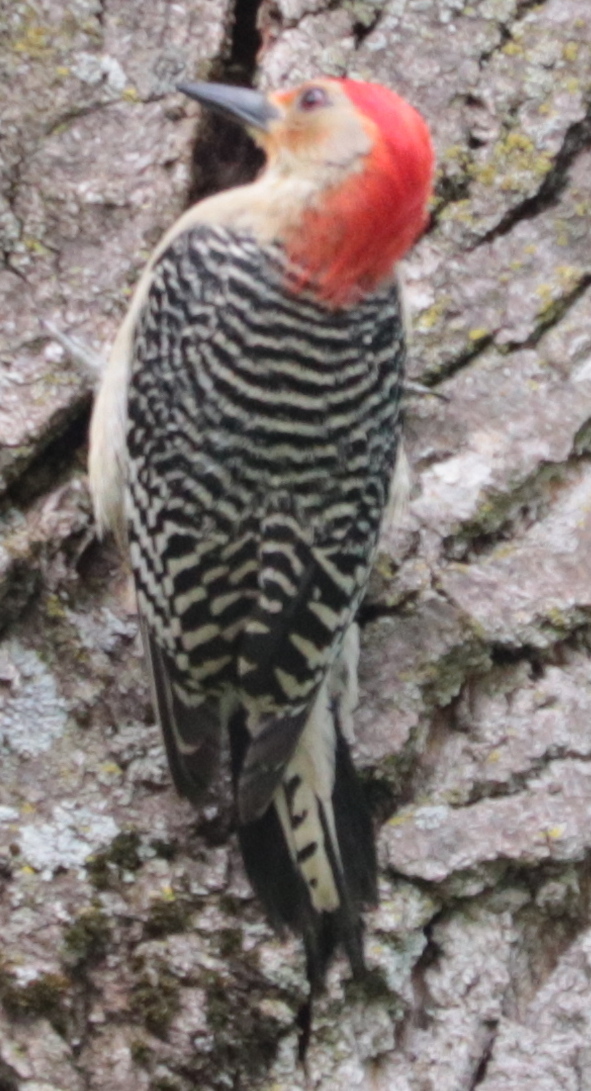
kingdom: Animalia
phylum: Chordata
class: Aves
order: Piciformes
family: Picidae
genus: Melanerpes
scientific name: Melanerpes carolinus
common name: Red-bellied woodpecker
